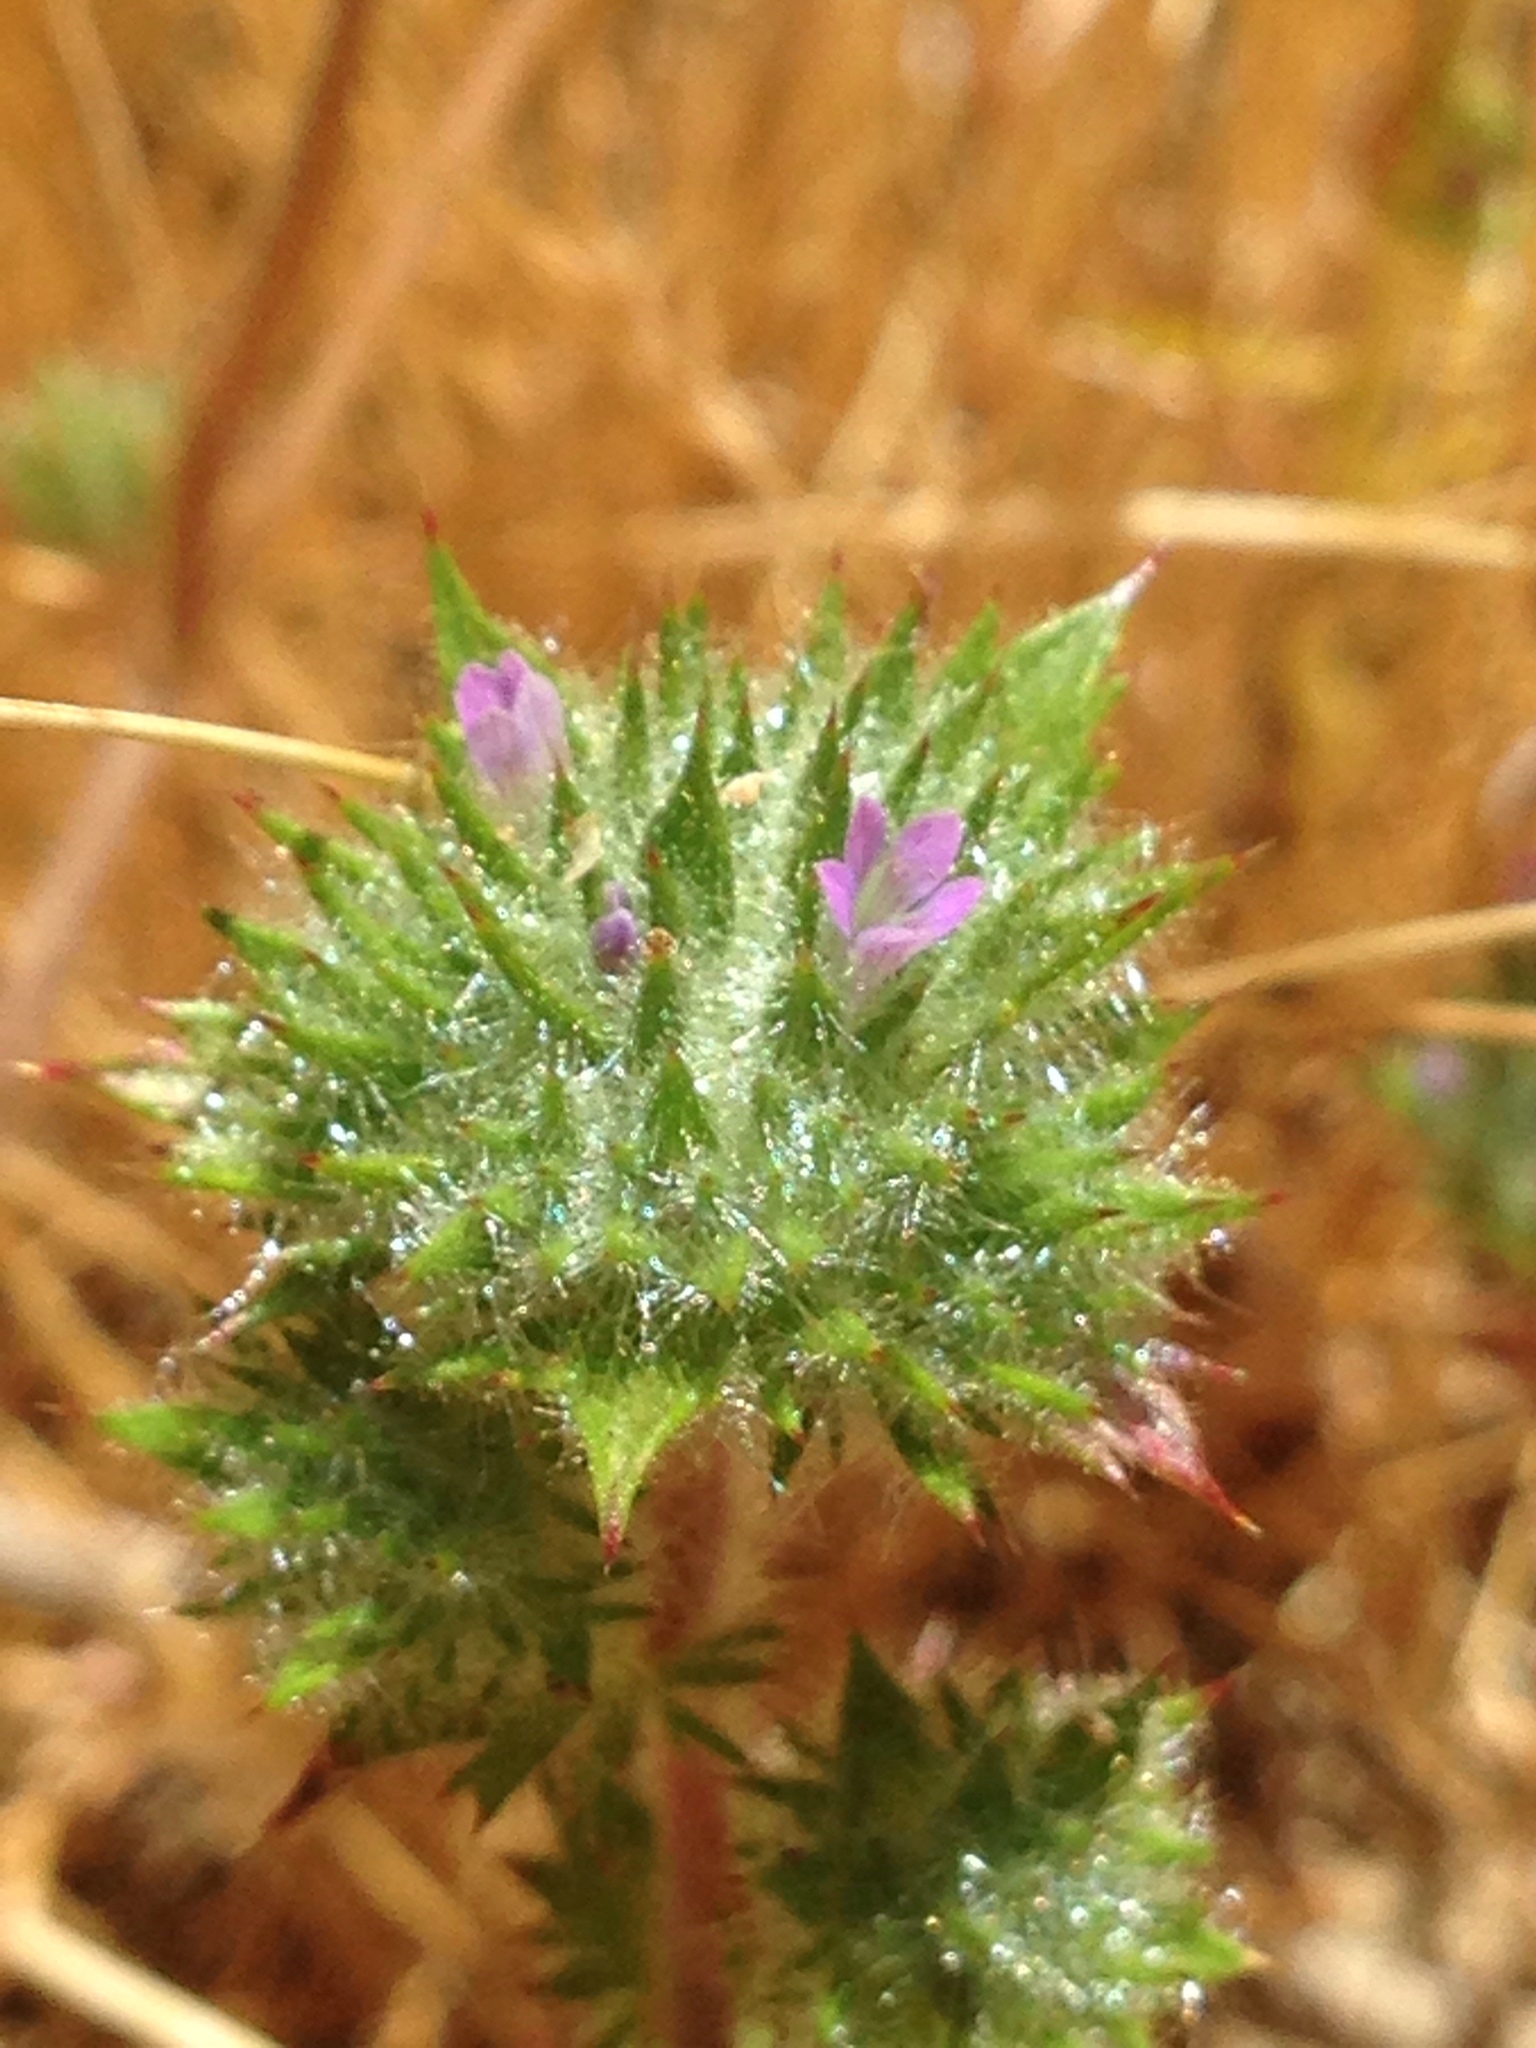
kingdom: Plantae
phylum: Tracheophyta
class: Magnoliopsida
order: Ericales
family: Polemoniaceae
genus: Navarretia
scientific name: Navarretia mellita
